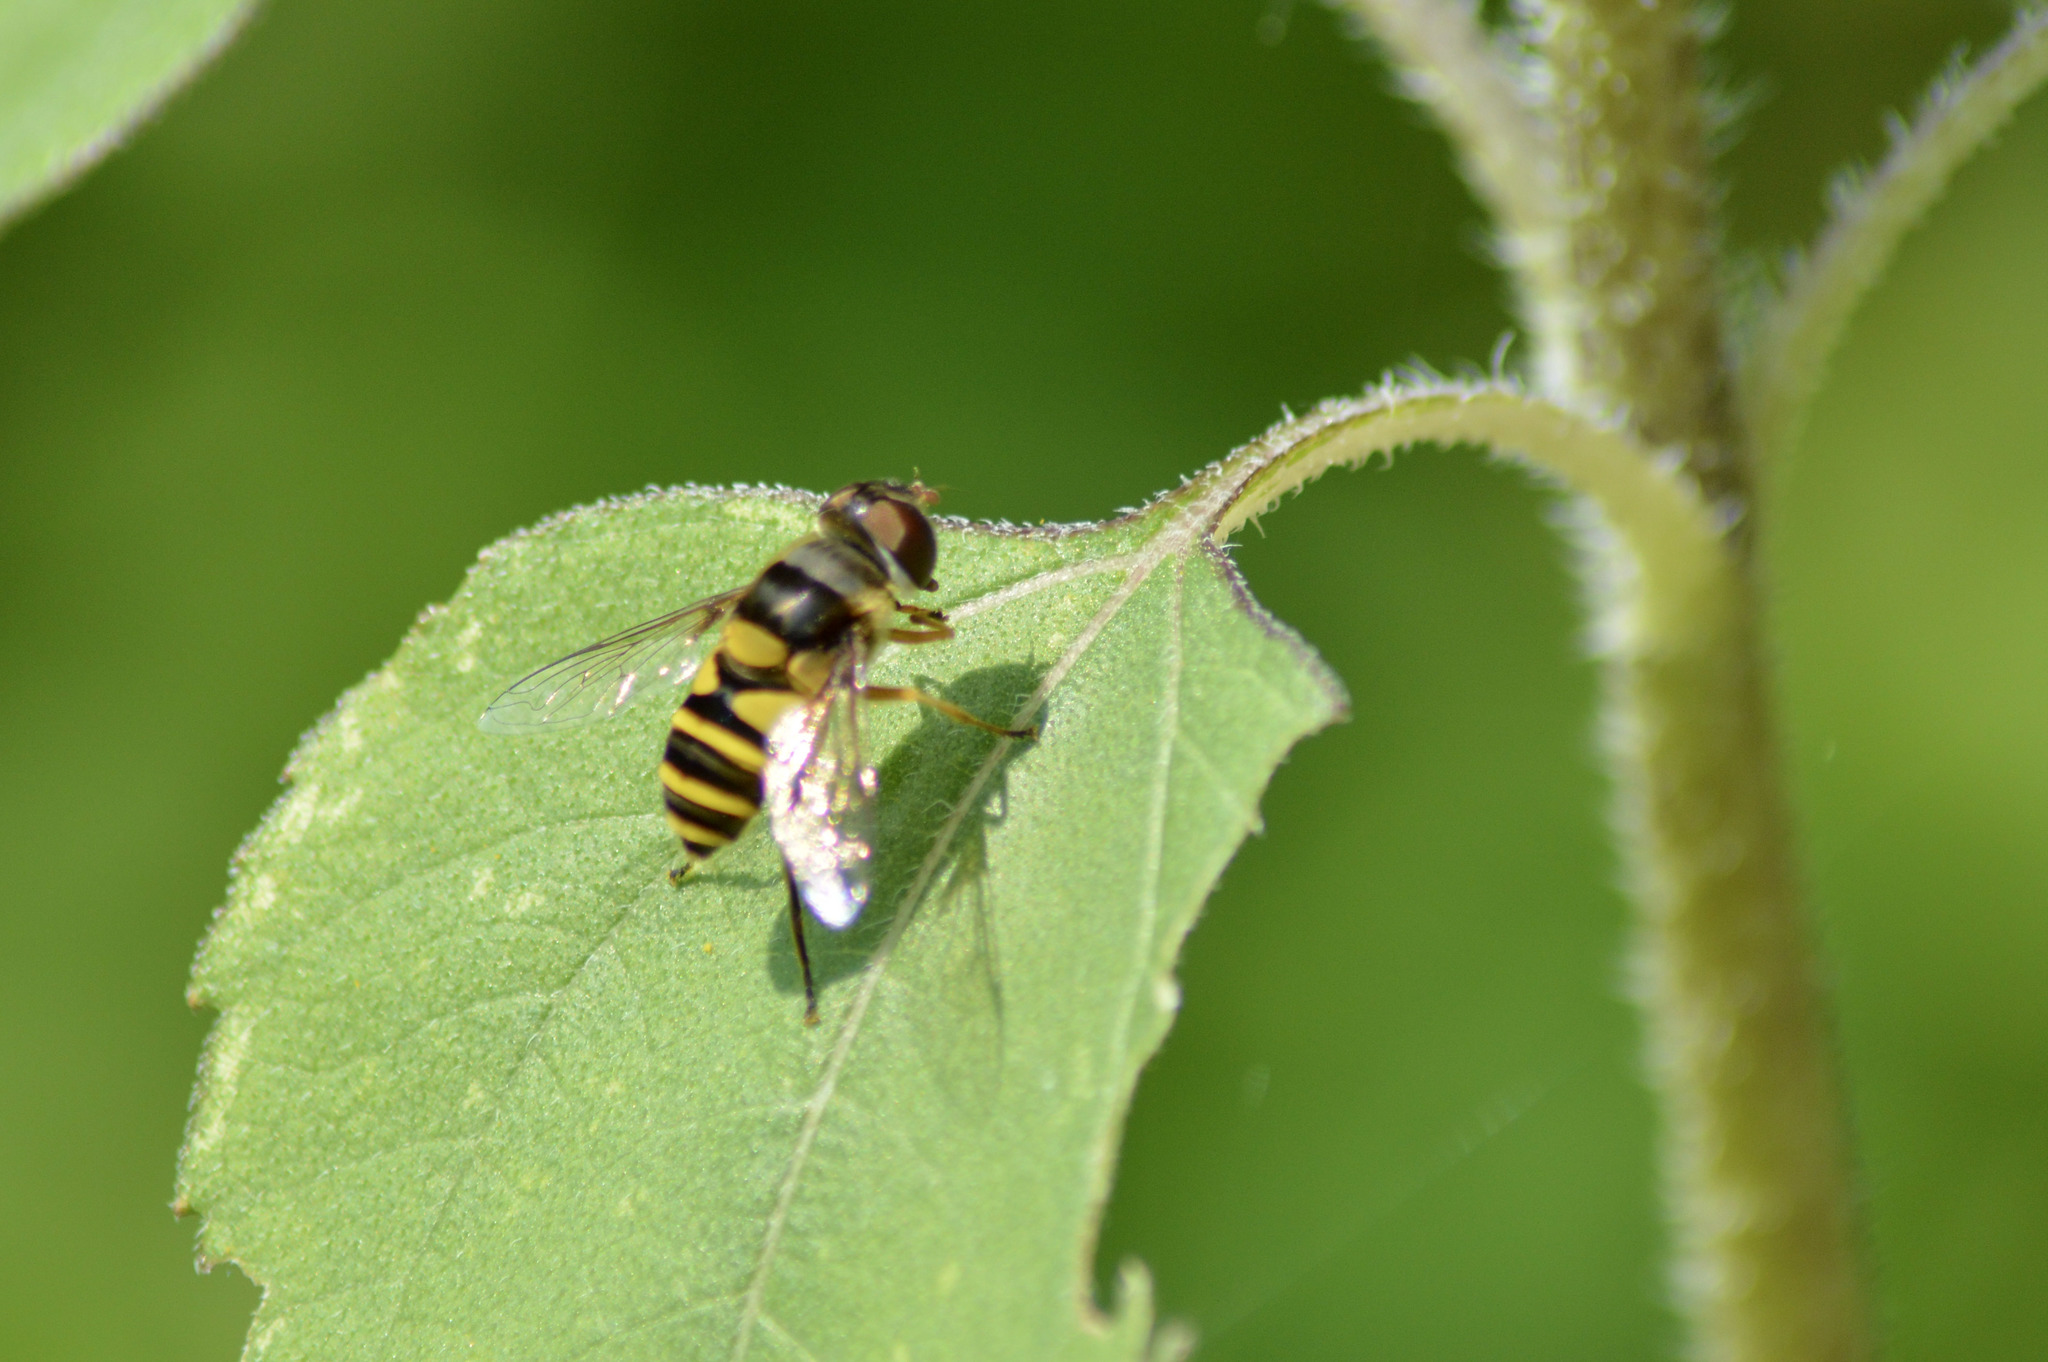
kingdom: Animalia
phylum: Arthropoda
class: Insecta
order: Diptera
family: Syrphidae
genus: Eristalis
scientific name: Eristalis transversa
